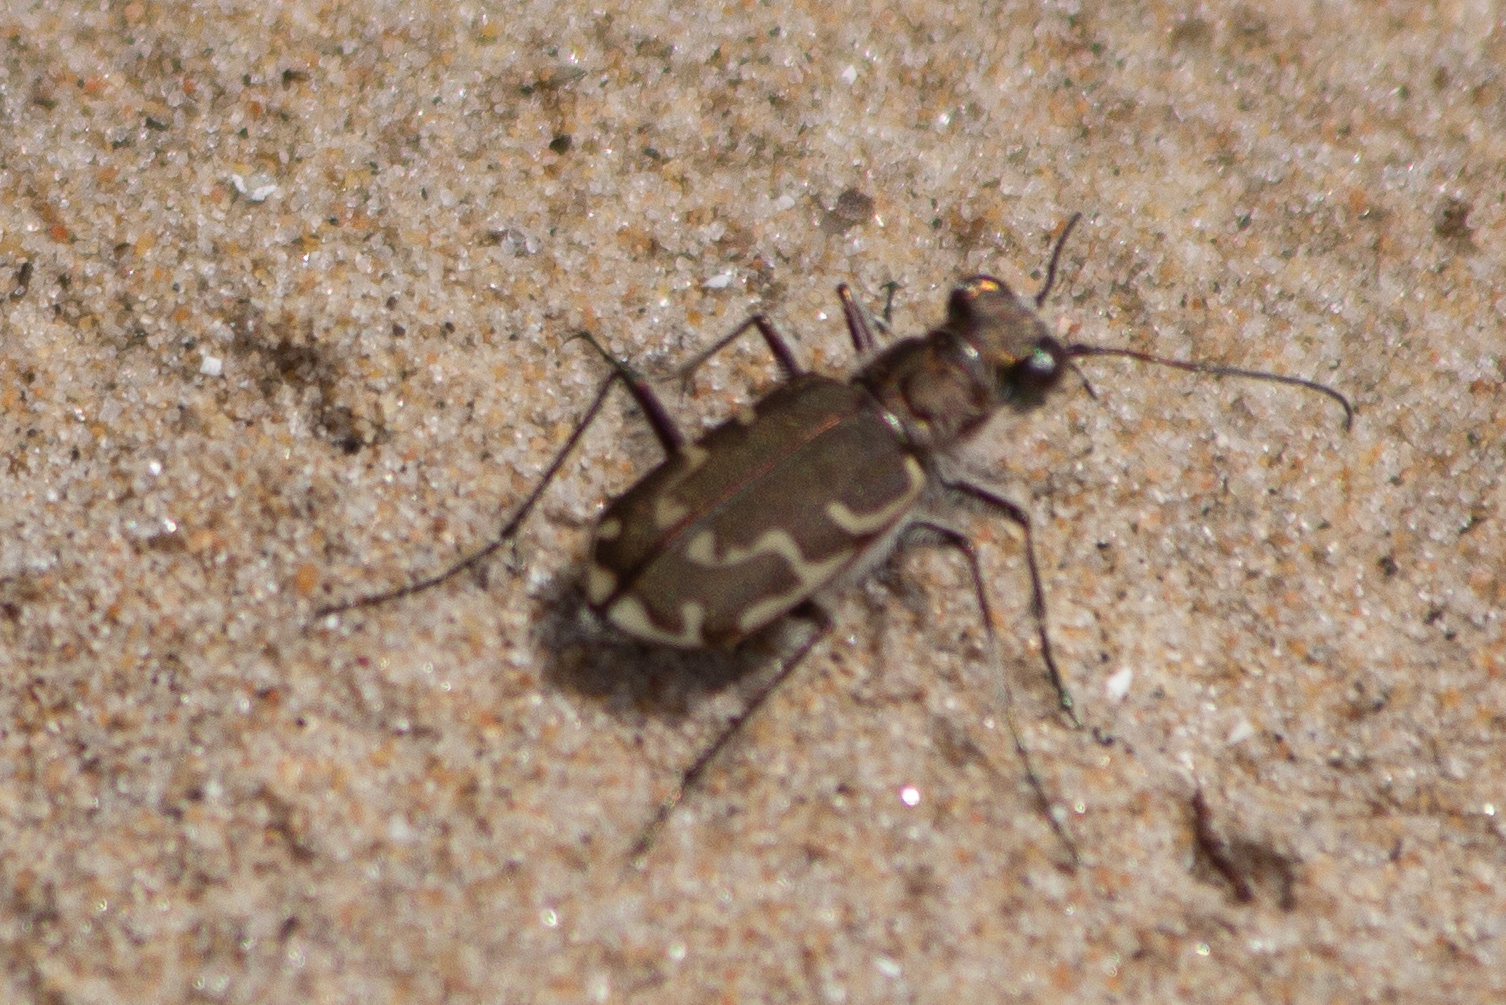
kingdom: Animalia
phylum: Arthropoda
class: Insecta
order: Coleoptera
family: Carabidae
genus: Cicindela
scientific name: Cicindela repanda
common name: Bronzed tiger beetle
